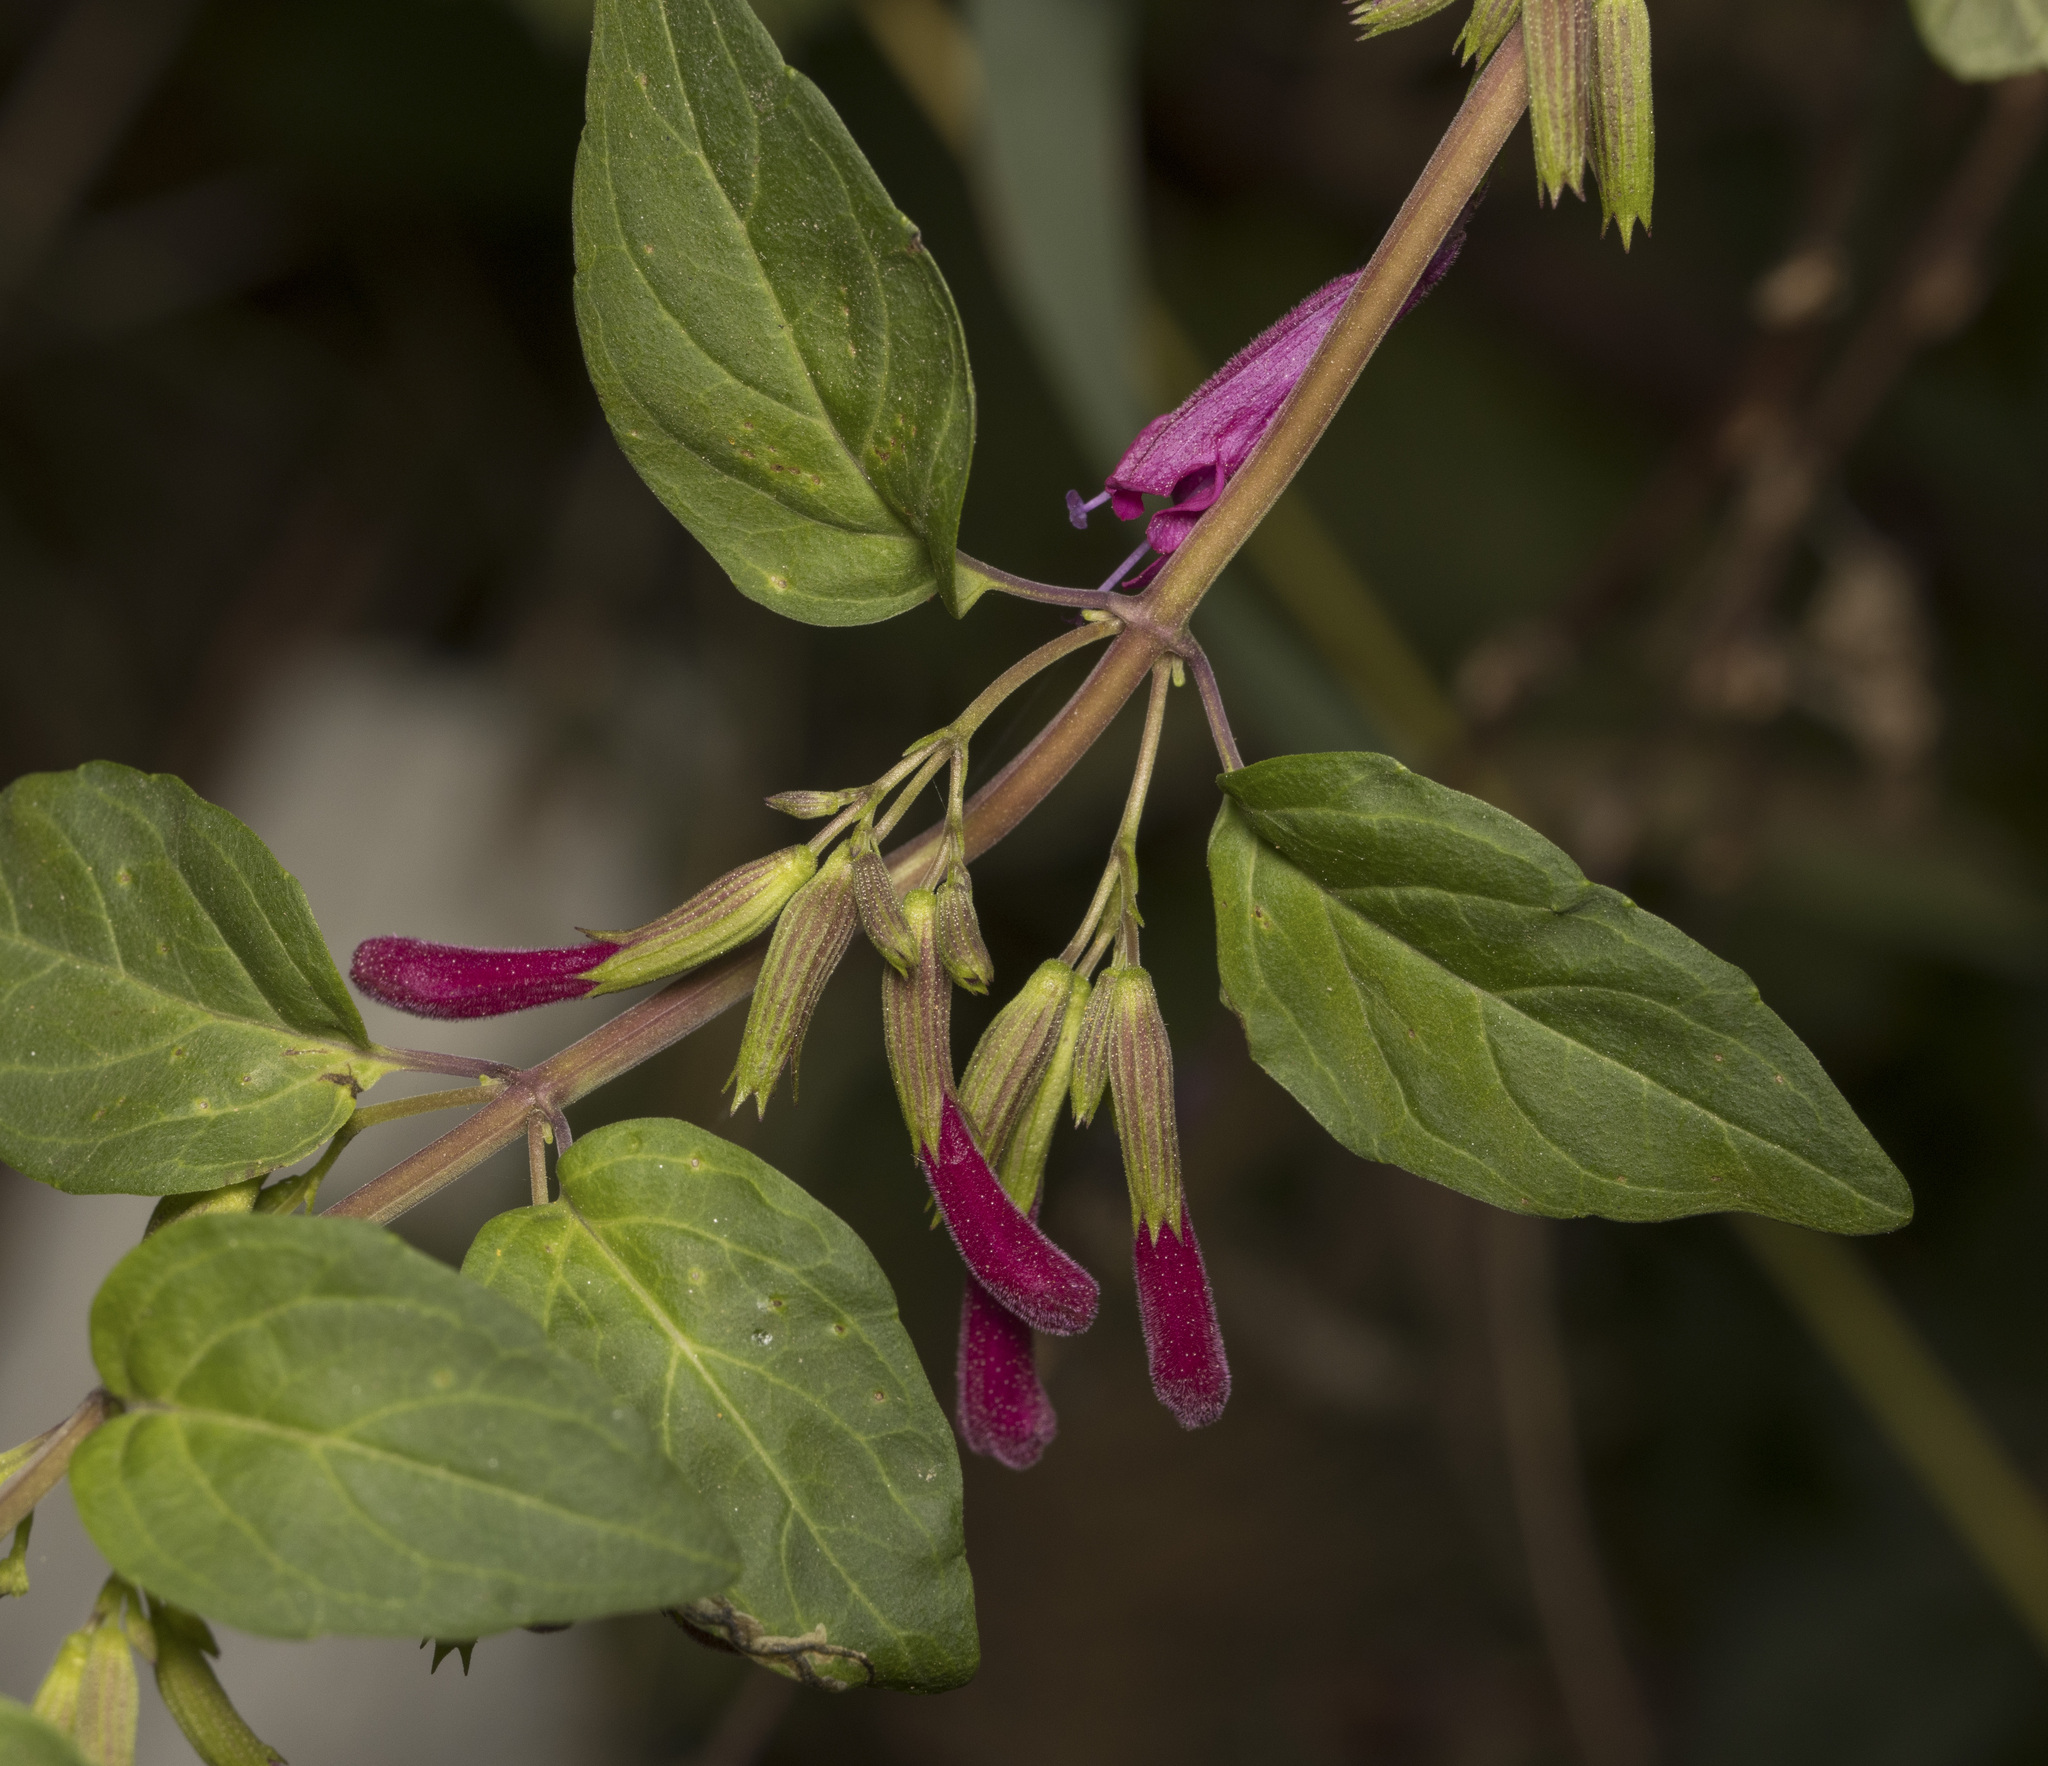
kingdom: Plantae
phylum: Tracheophyta
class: Magnoliopsida
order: Lamiales
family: Lamiaceae
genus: Clinopodium
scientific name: Clinopodium multiflorum
